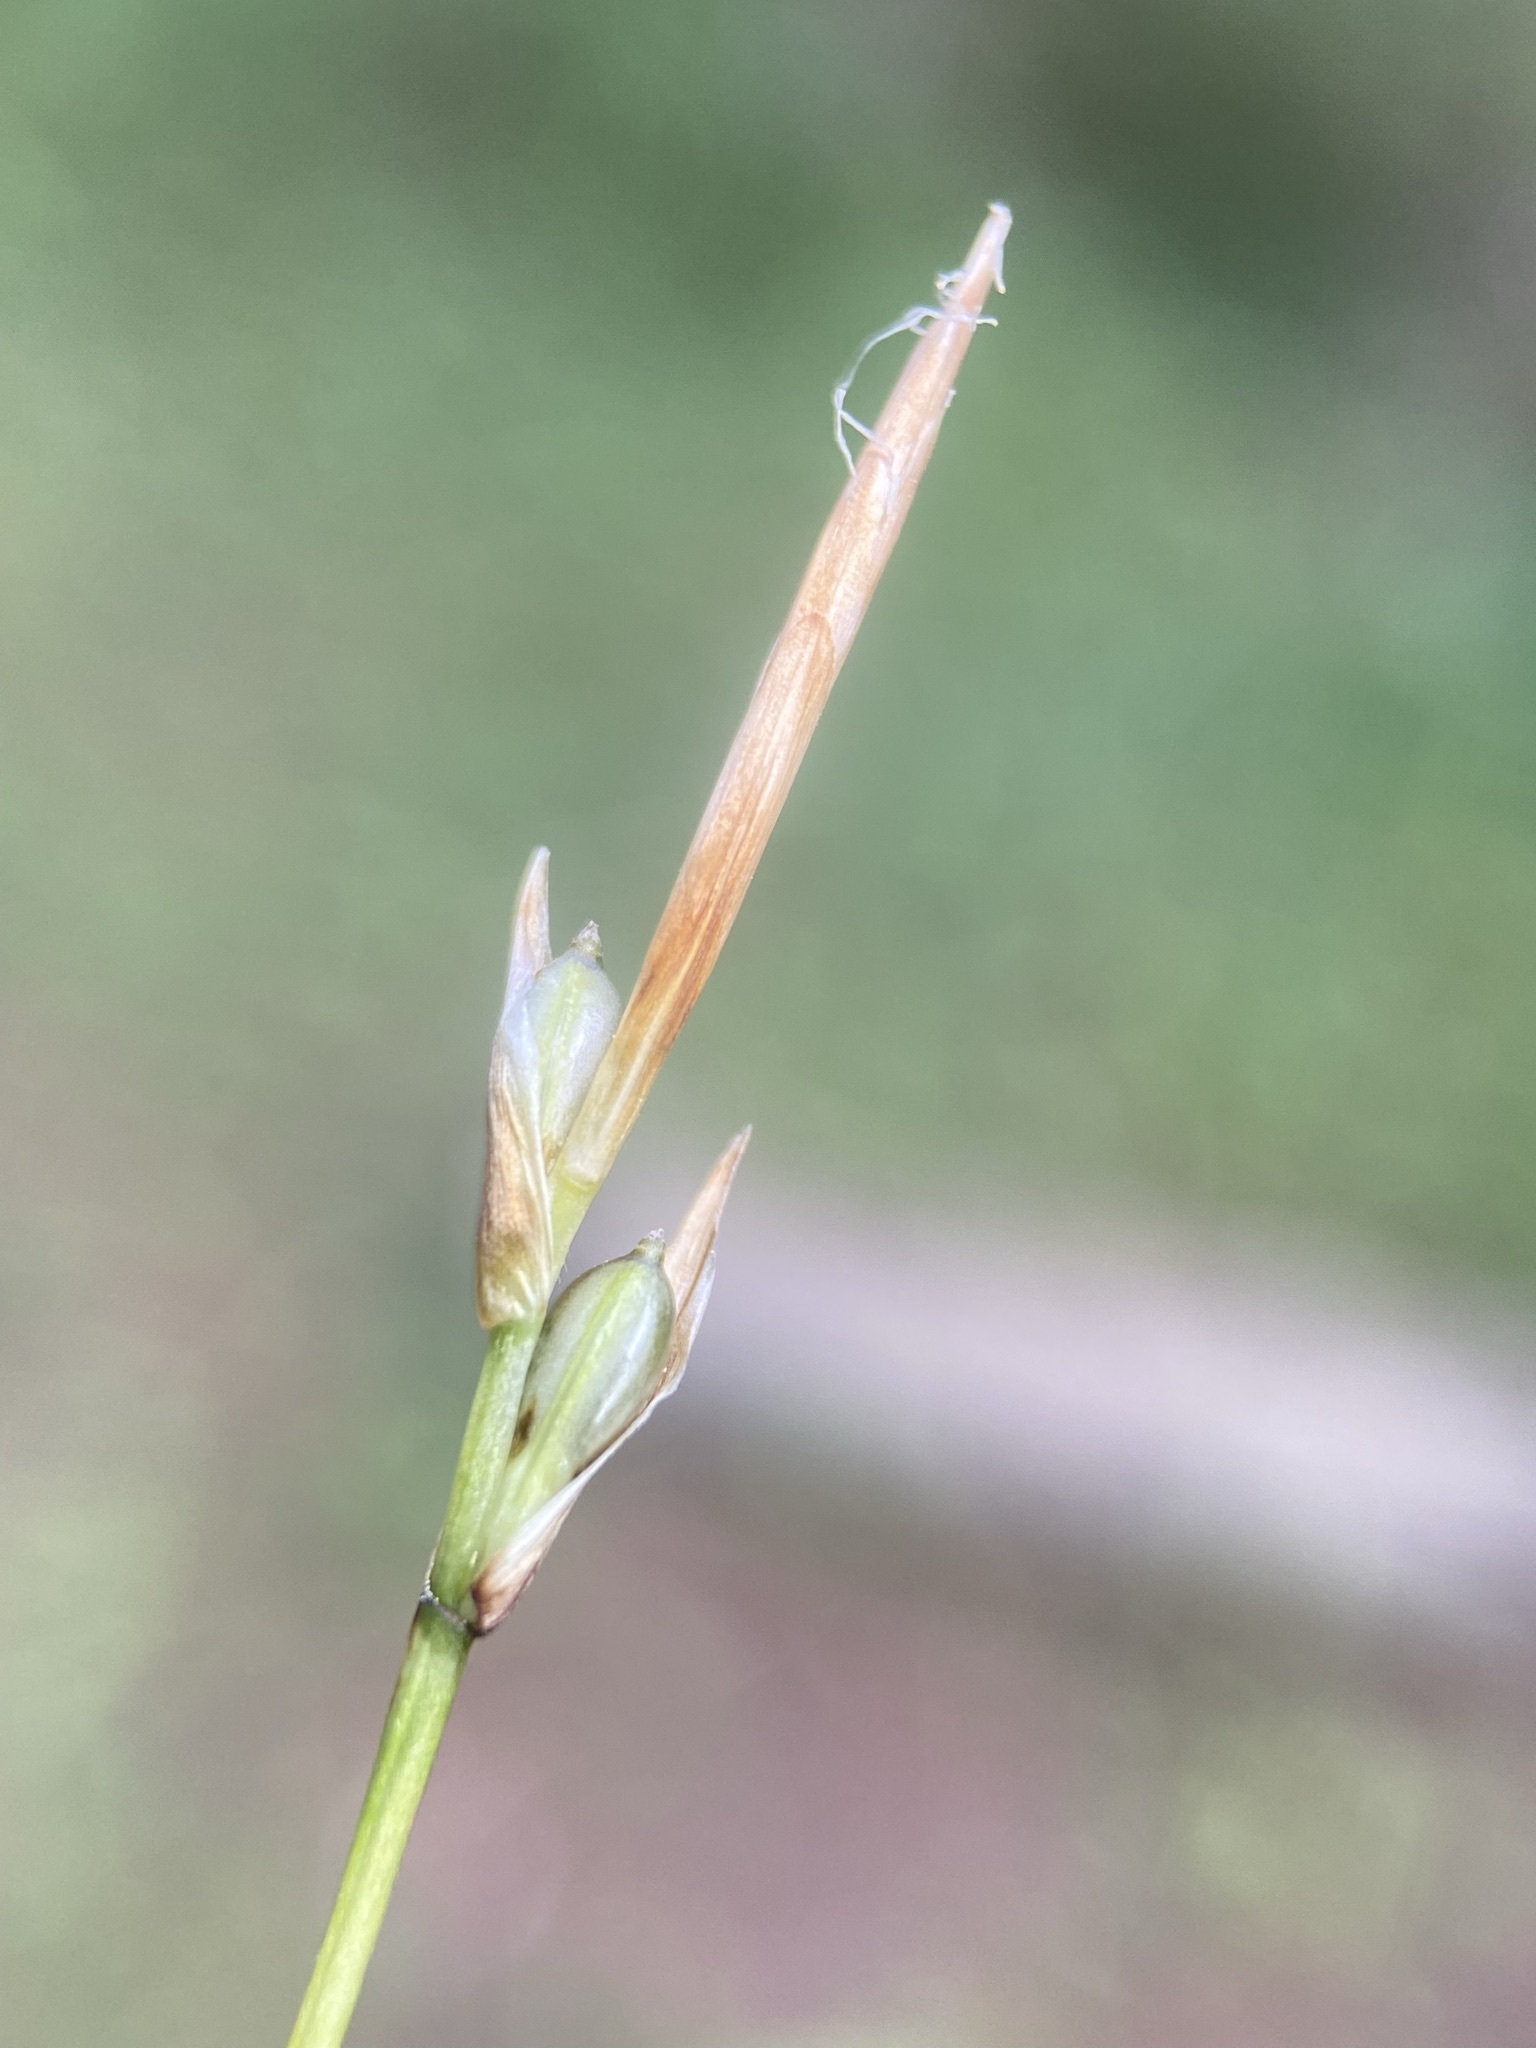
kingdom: Plantae
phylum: Tracheophyta
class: Liliopsida
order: Poales
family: Cyperaceae
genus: Carex
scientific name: Carex geyeri
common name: Elk sedge
